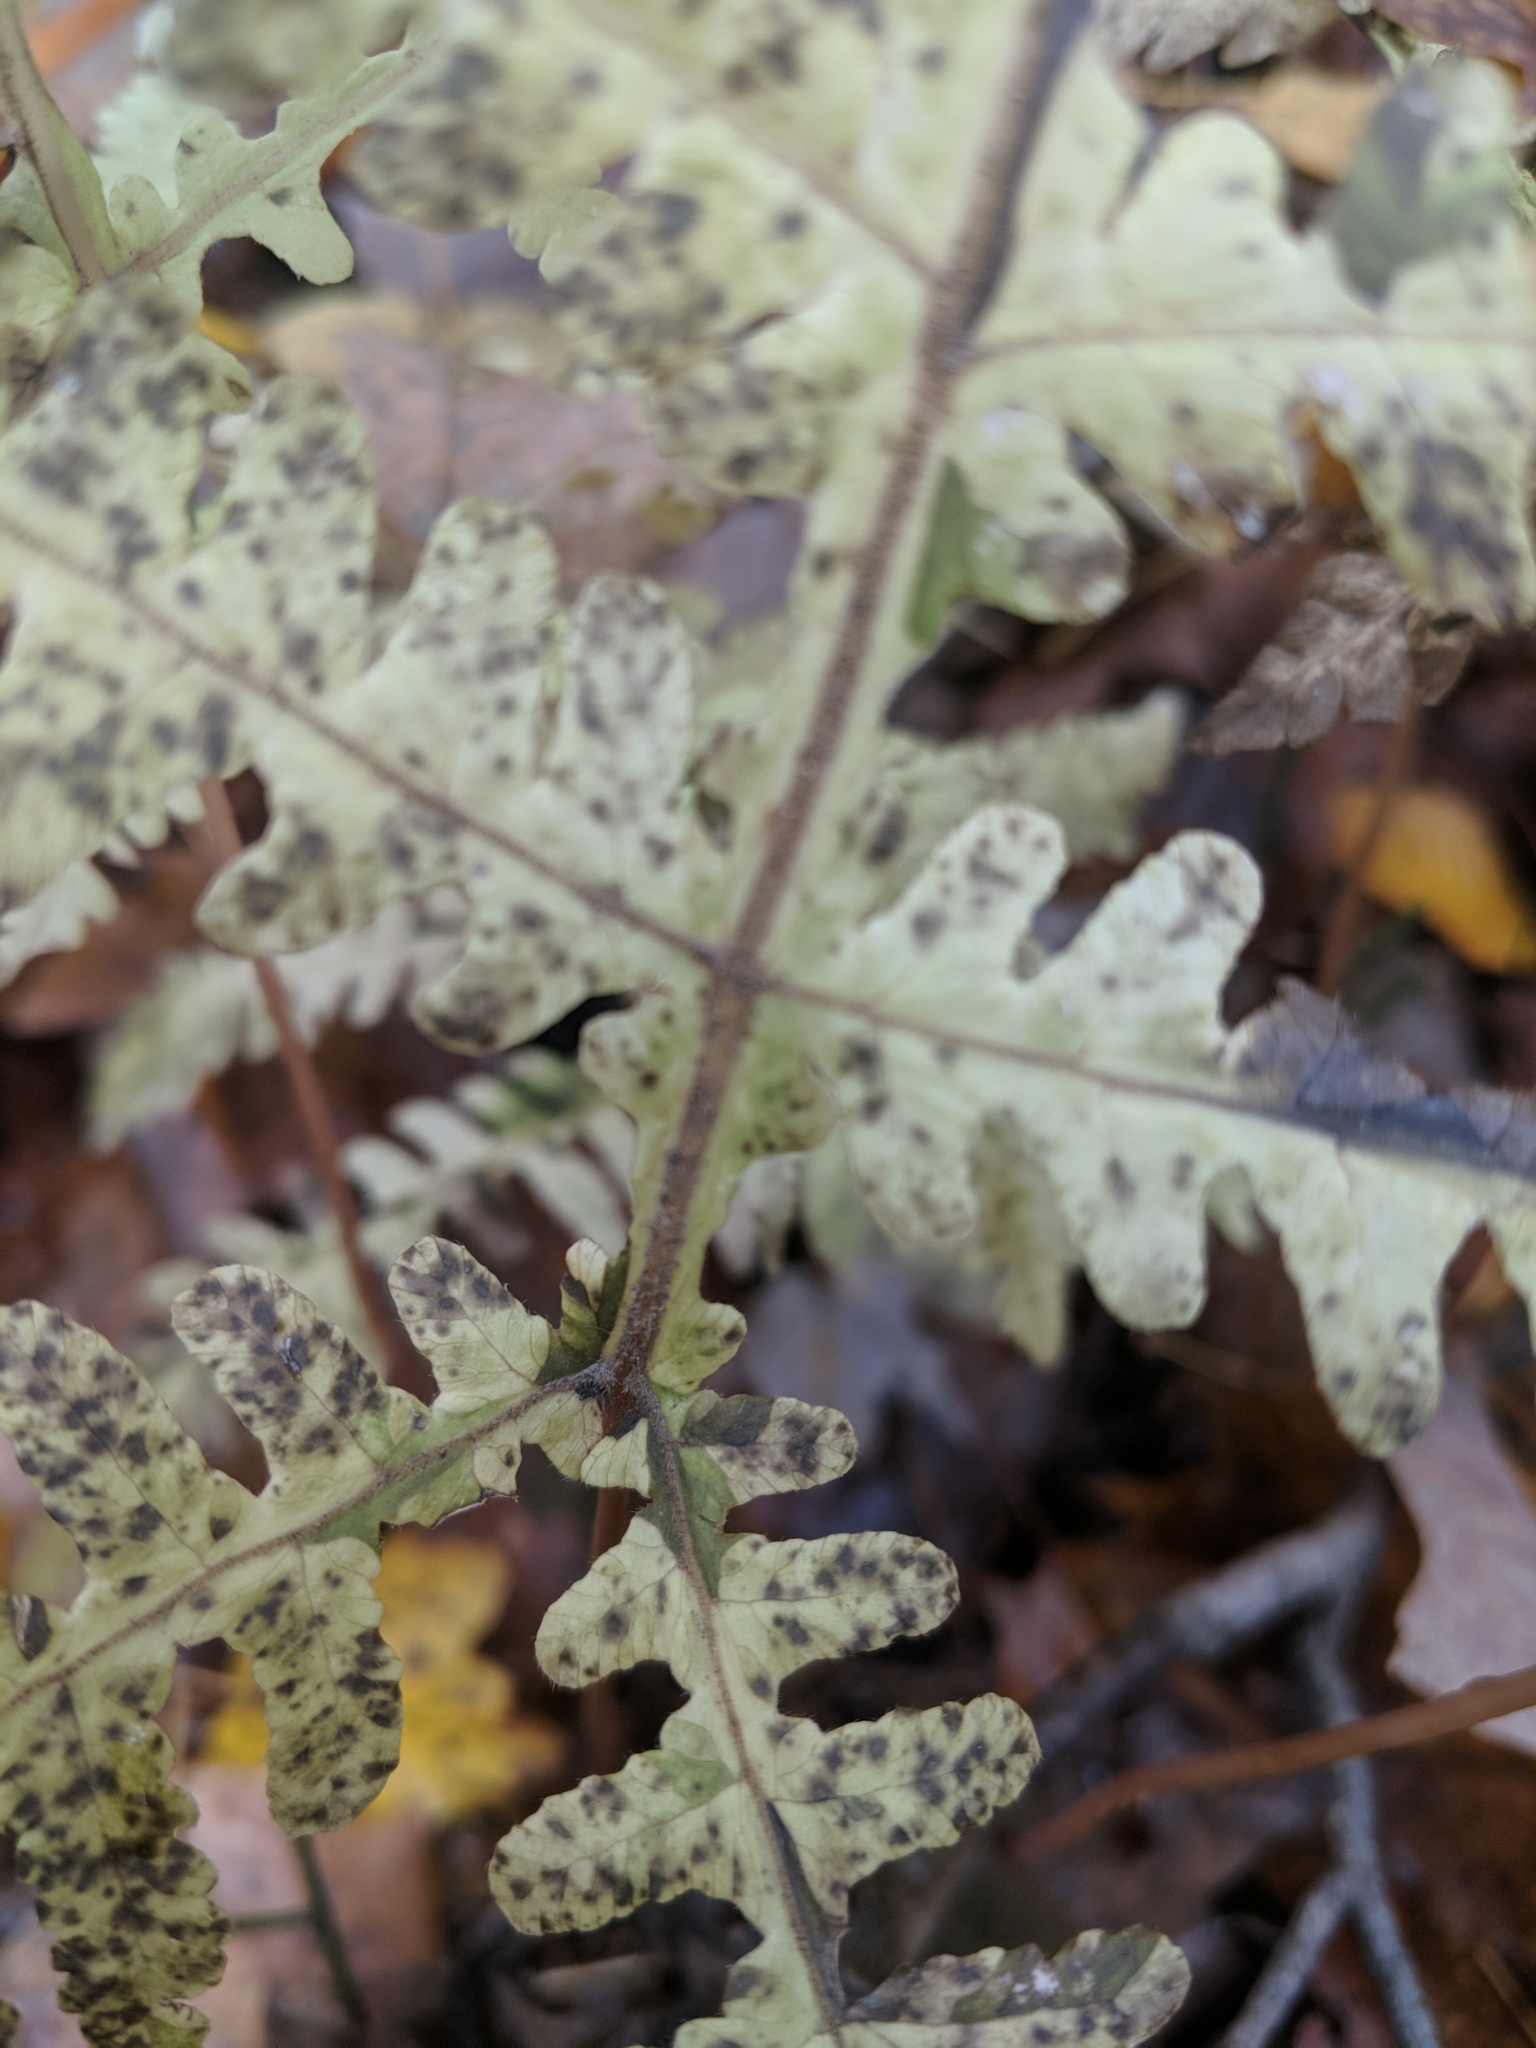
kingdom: Plantae
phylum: Tracheophyta
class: Polypodiopsida
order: Polypodiales
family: Thelypteridaceae
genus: Phegopteris
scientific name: Phegopteris hexagonoptera
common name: Broad beech fern
